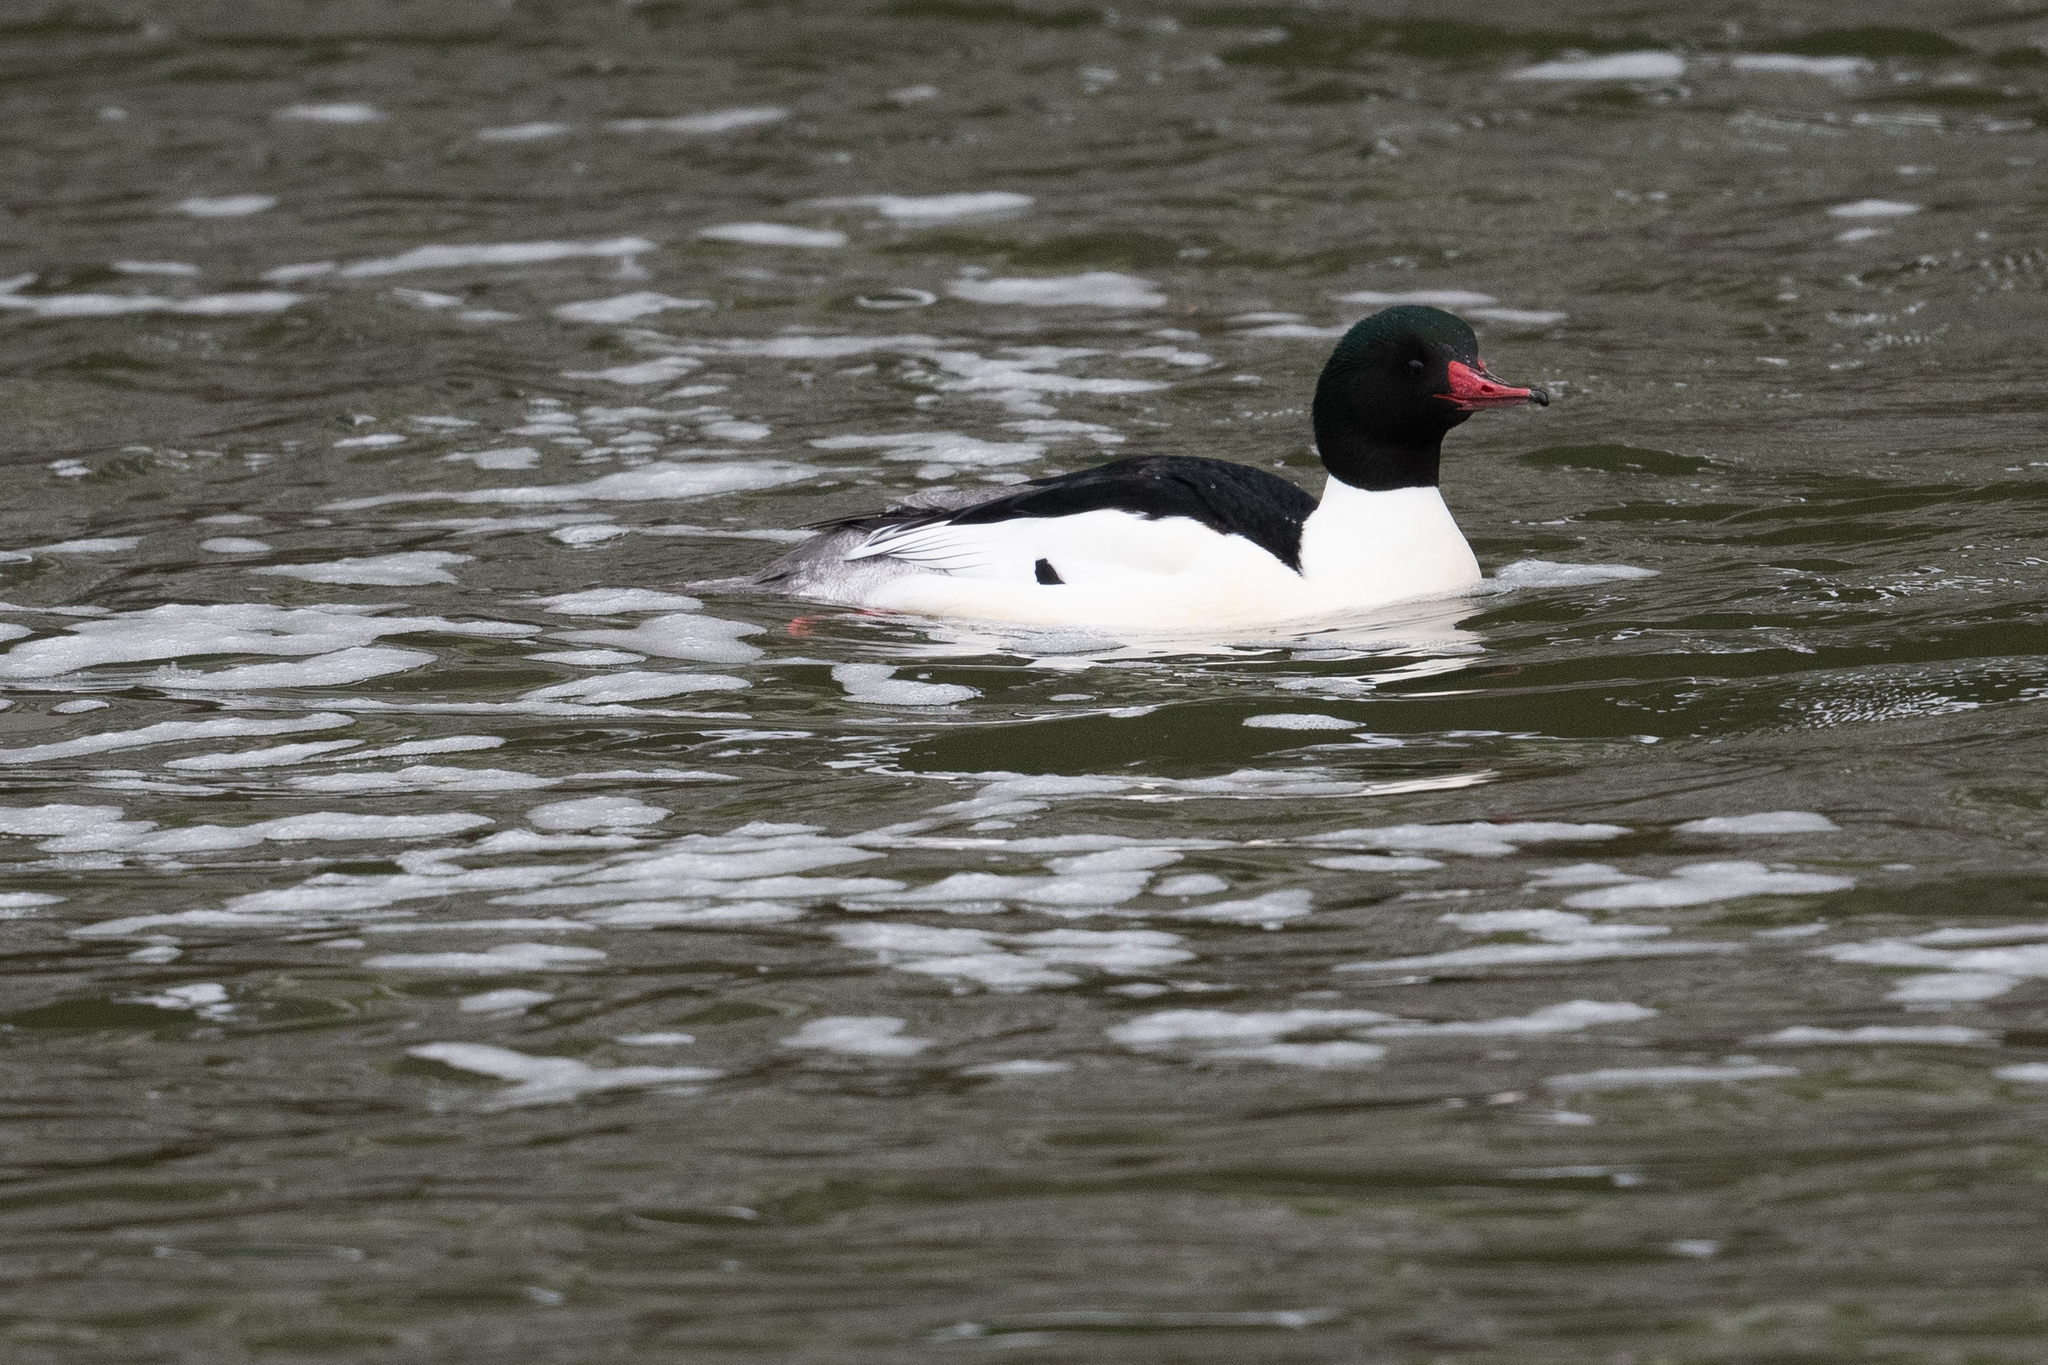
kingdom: Animalia
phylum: Chordata
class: Aves
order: Anseriformes
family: Anatidae
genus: Mergus
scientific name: Mergus merganser
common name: Common merganser
